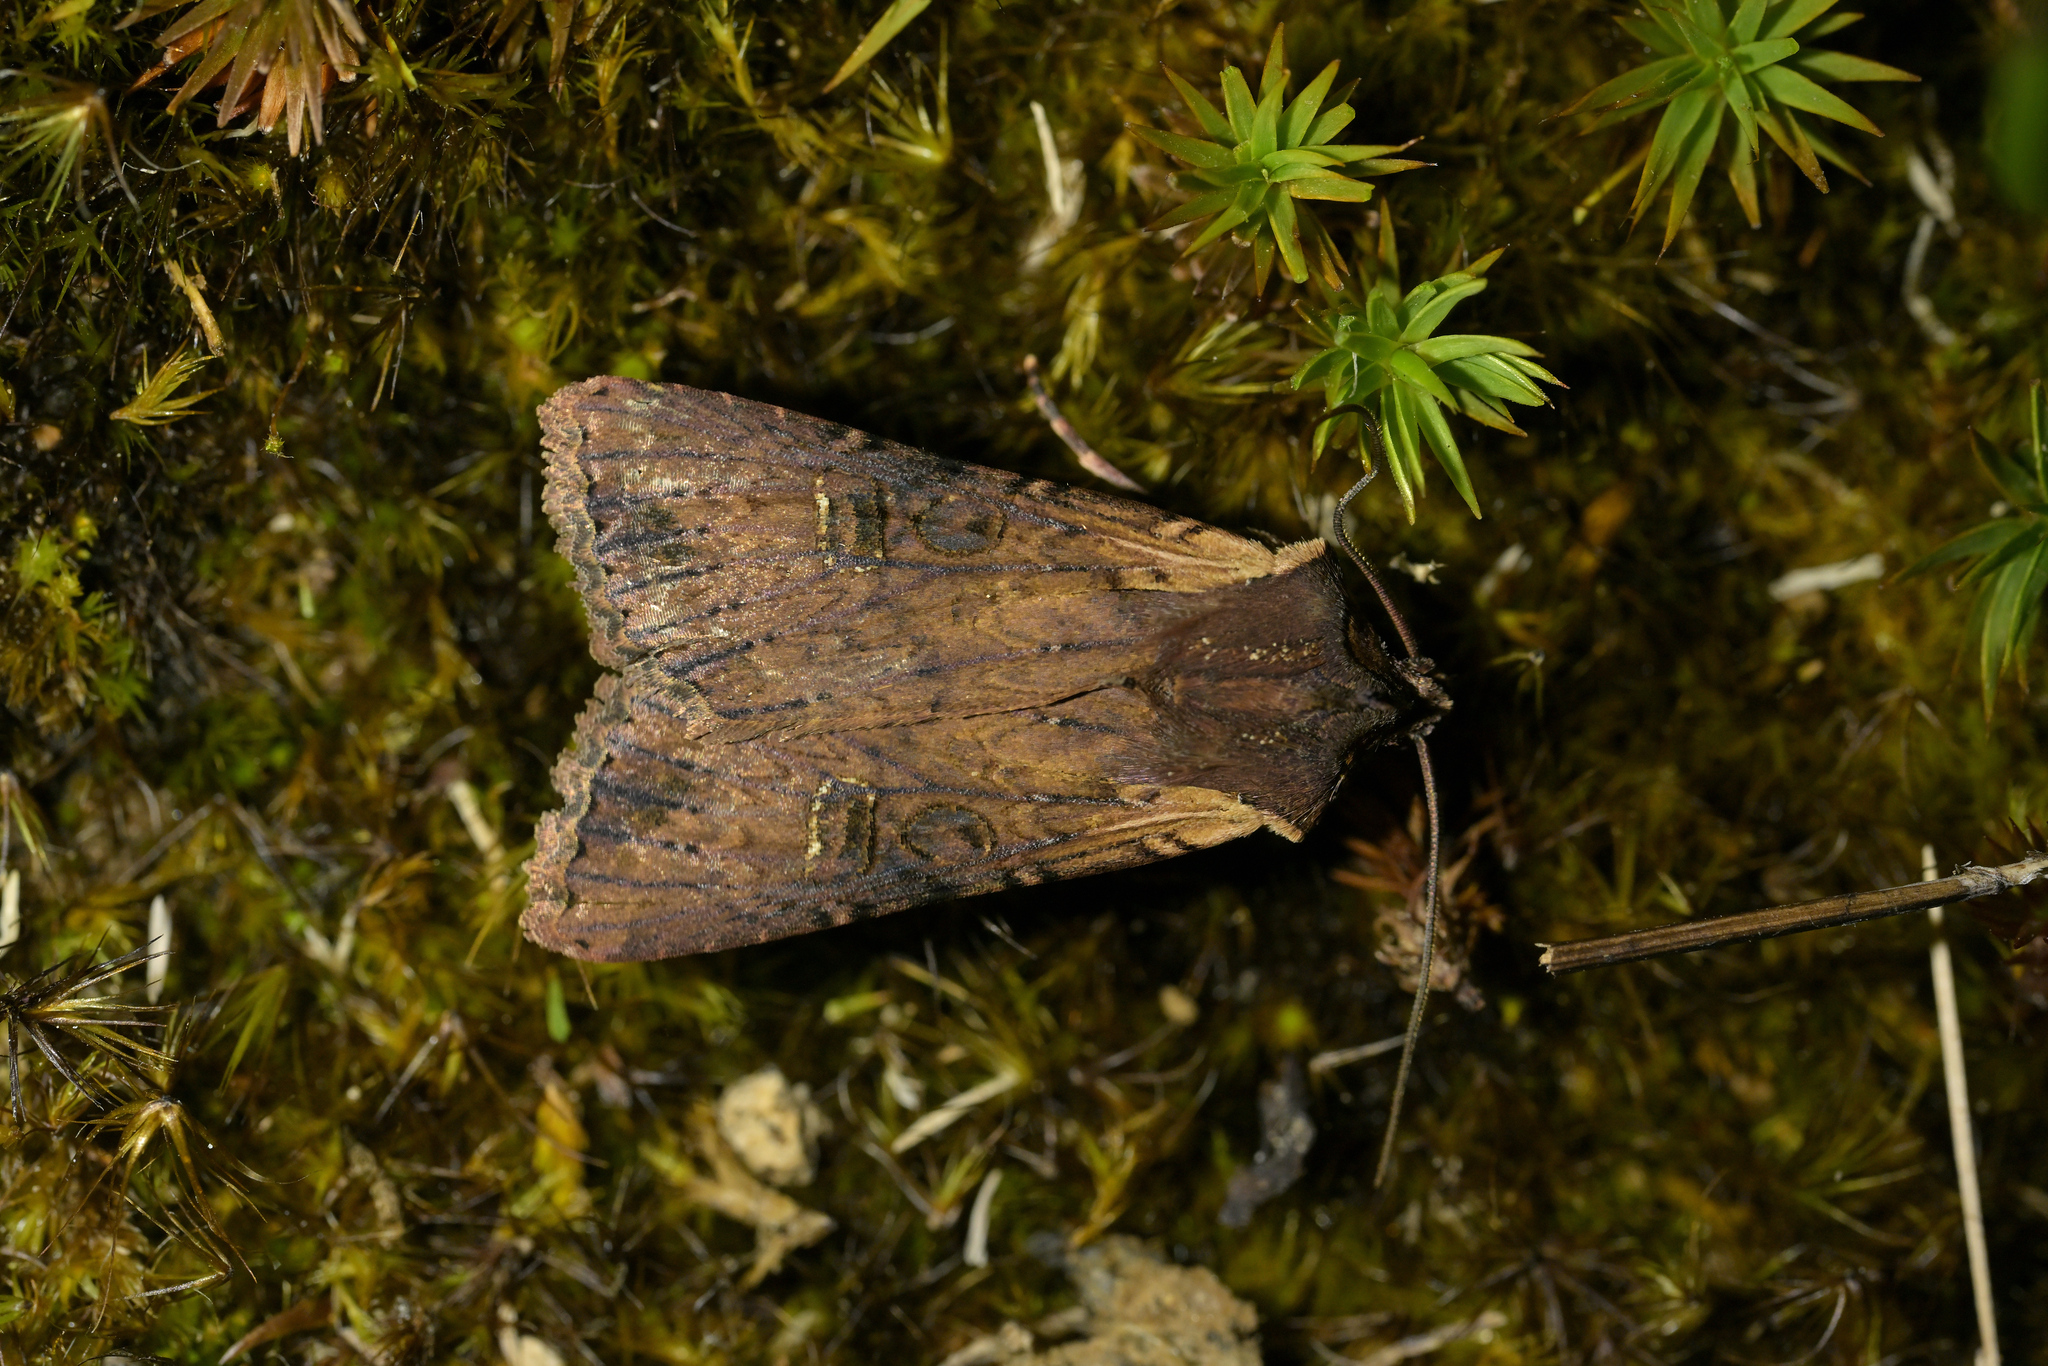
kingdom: Animalia
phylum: Arthropoda
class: Insecta
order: Lepidoptera
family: Noctuidae
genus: Ichneutica
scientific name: Ichneutica omoplaca
